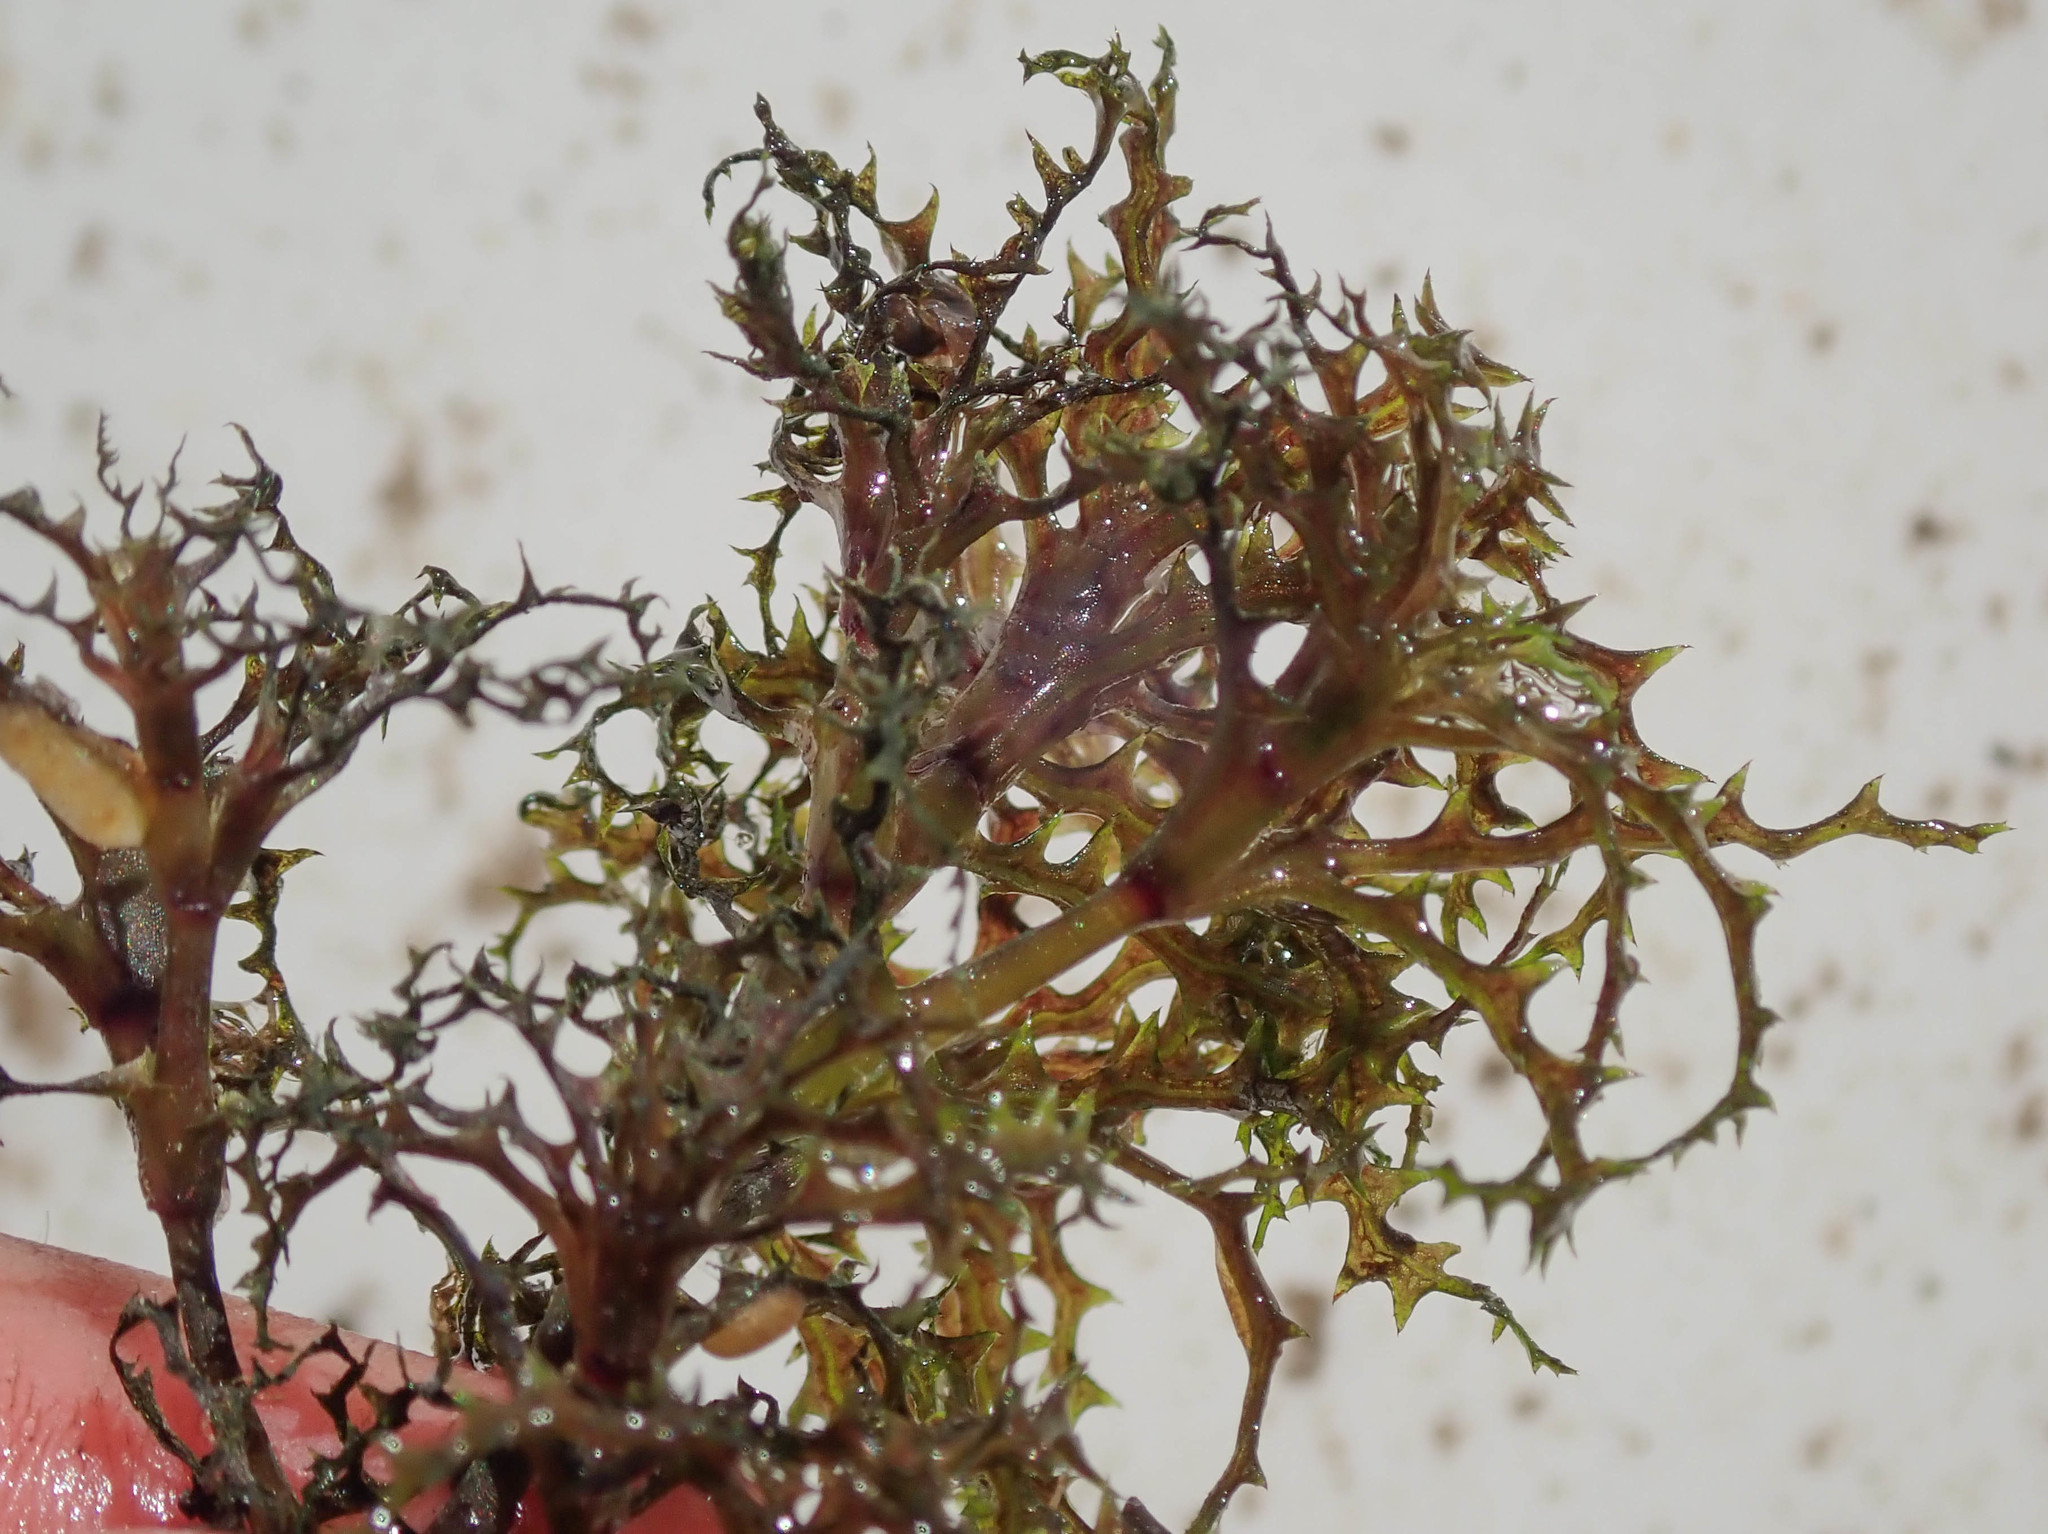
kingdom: Plantae
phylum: Tracheophyta
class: Liliopsida
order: Alismatales
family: Hydrocharitaceae
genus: Najas
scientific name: Najas horrida
